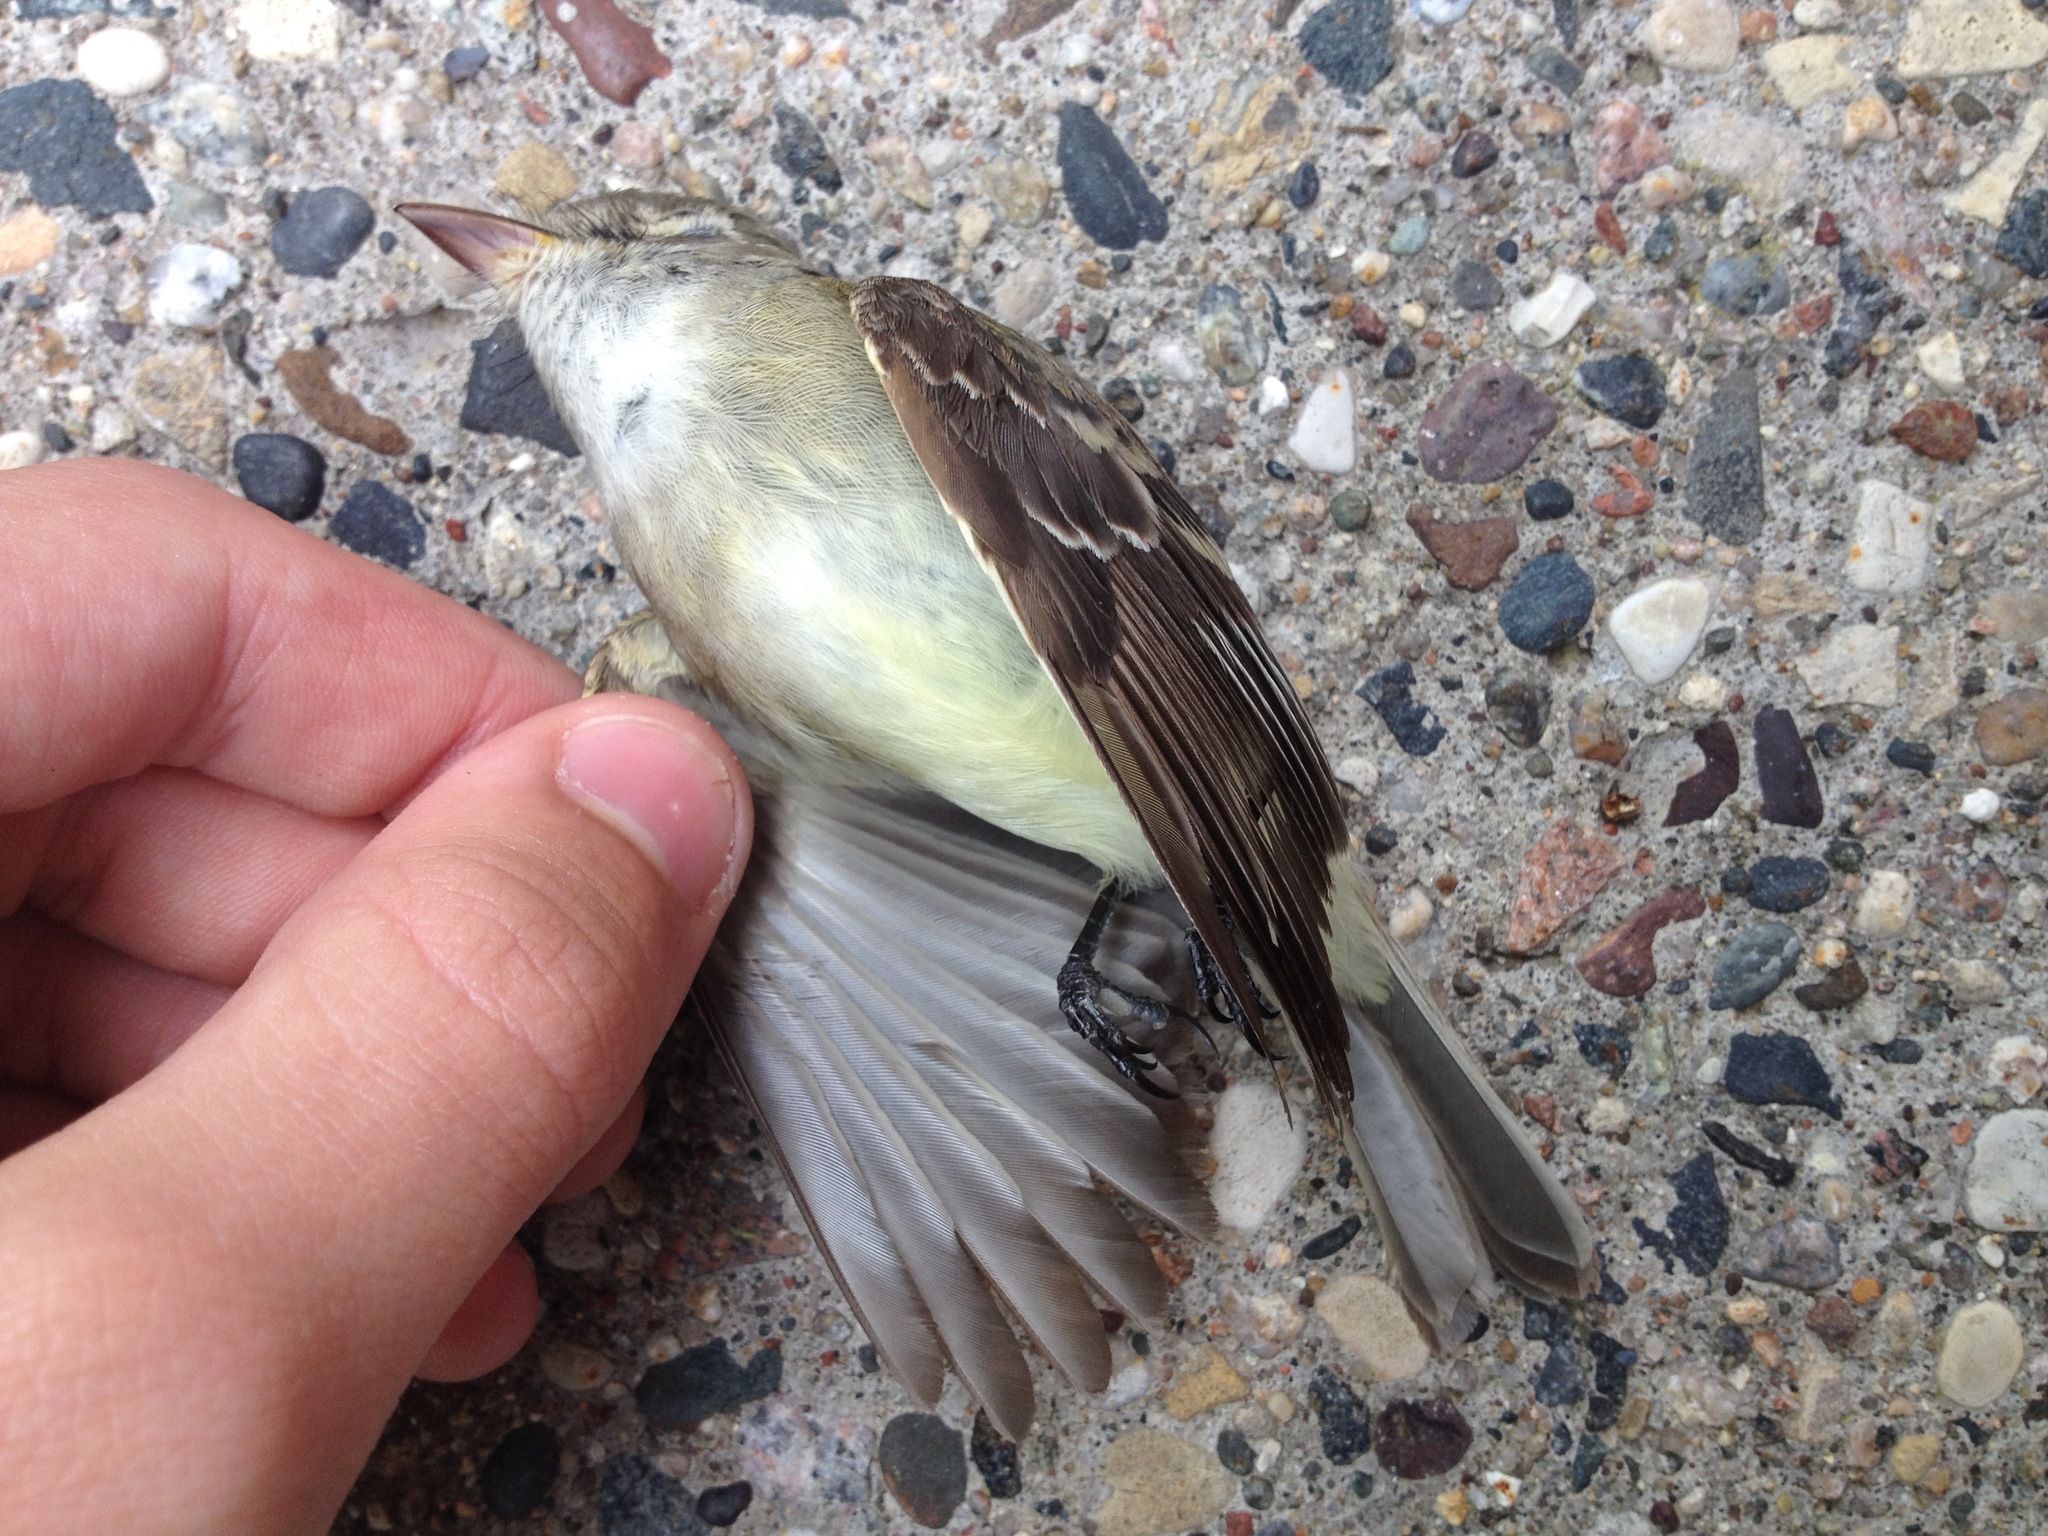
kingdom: Animalia
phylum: Chordata
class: Aves
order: Passeriformes
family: Tyrannidae
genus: Empidonax
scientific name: Empidonax
